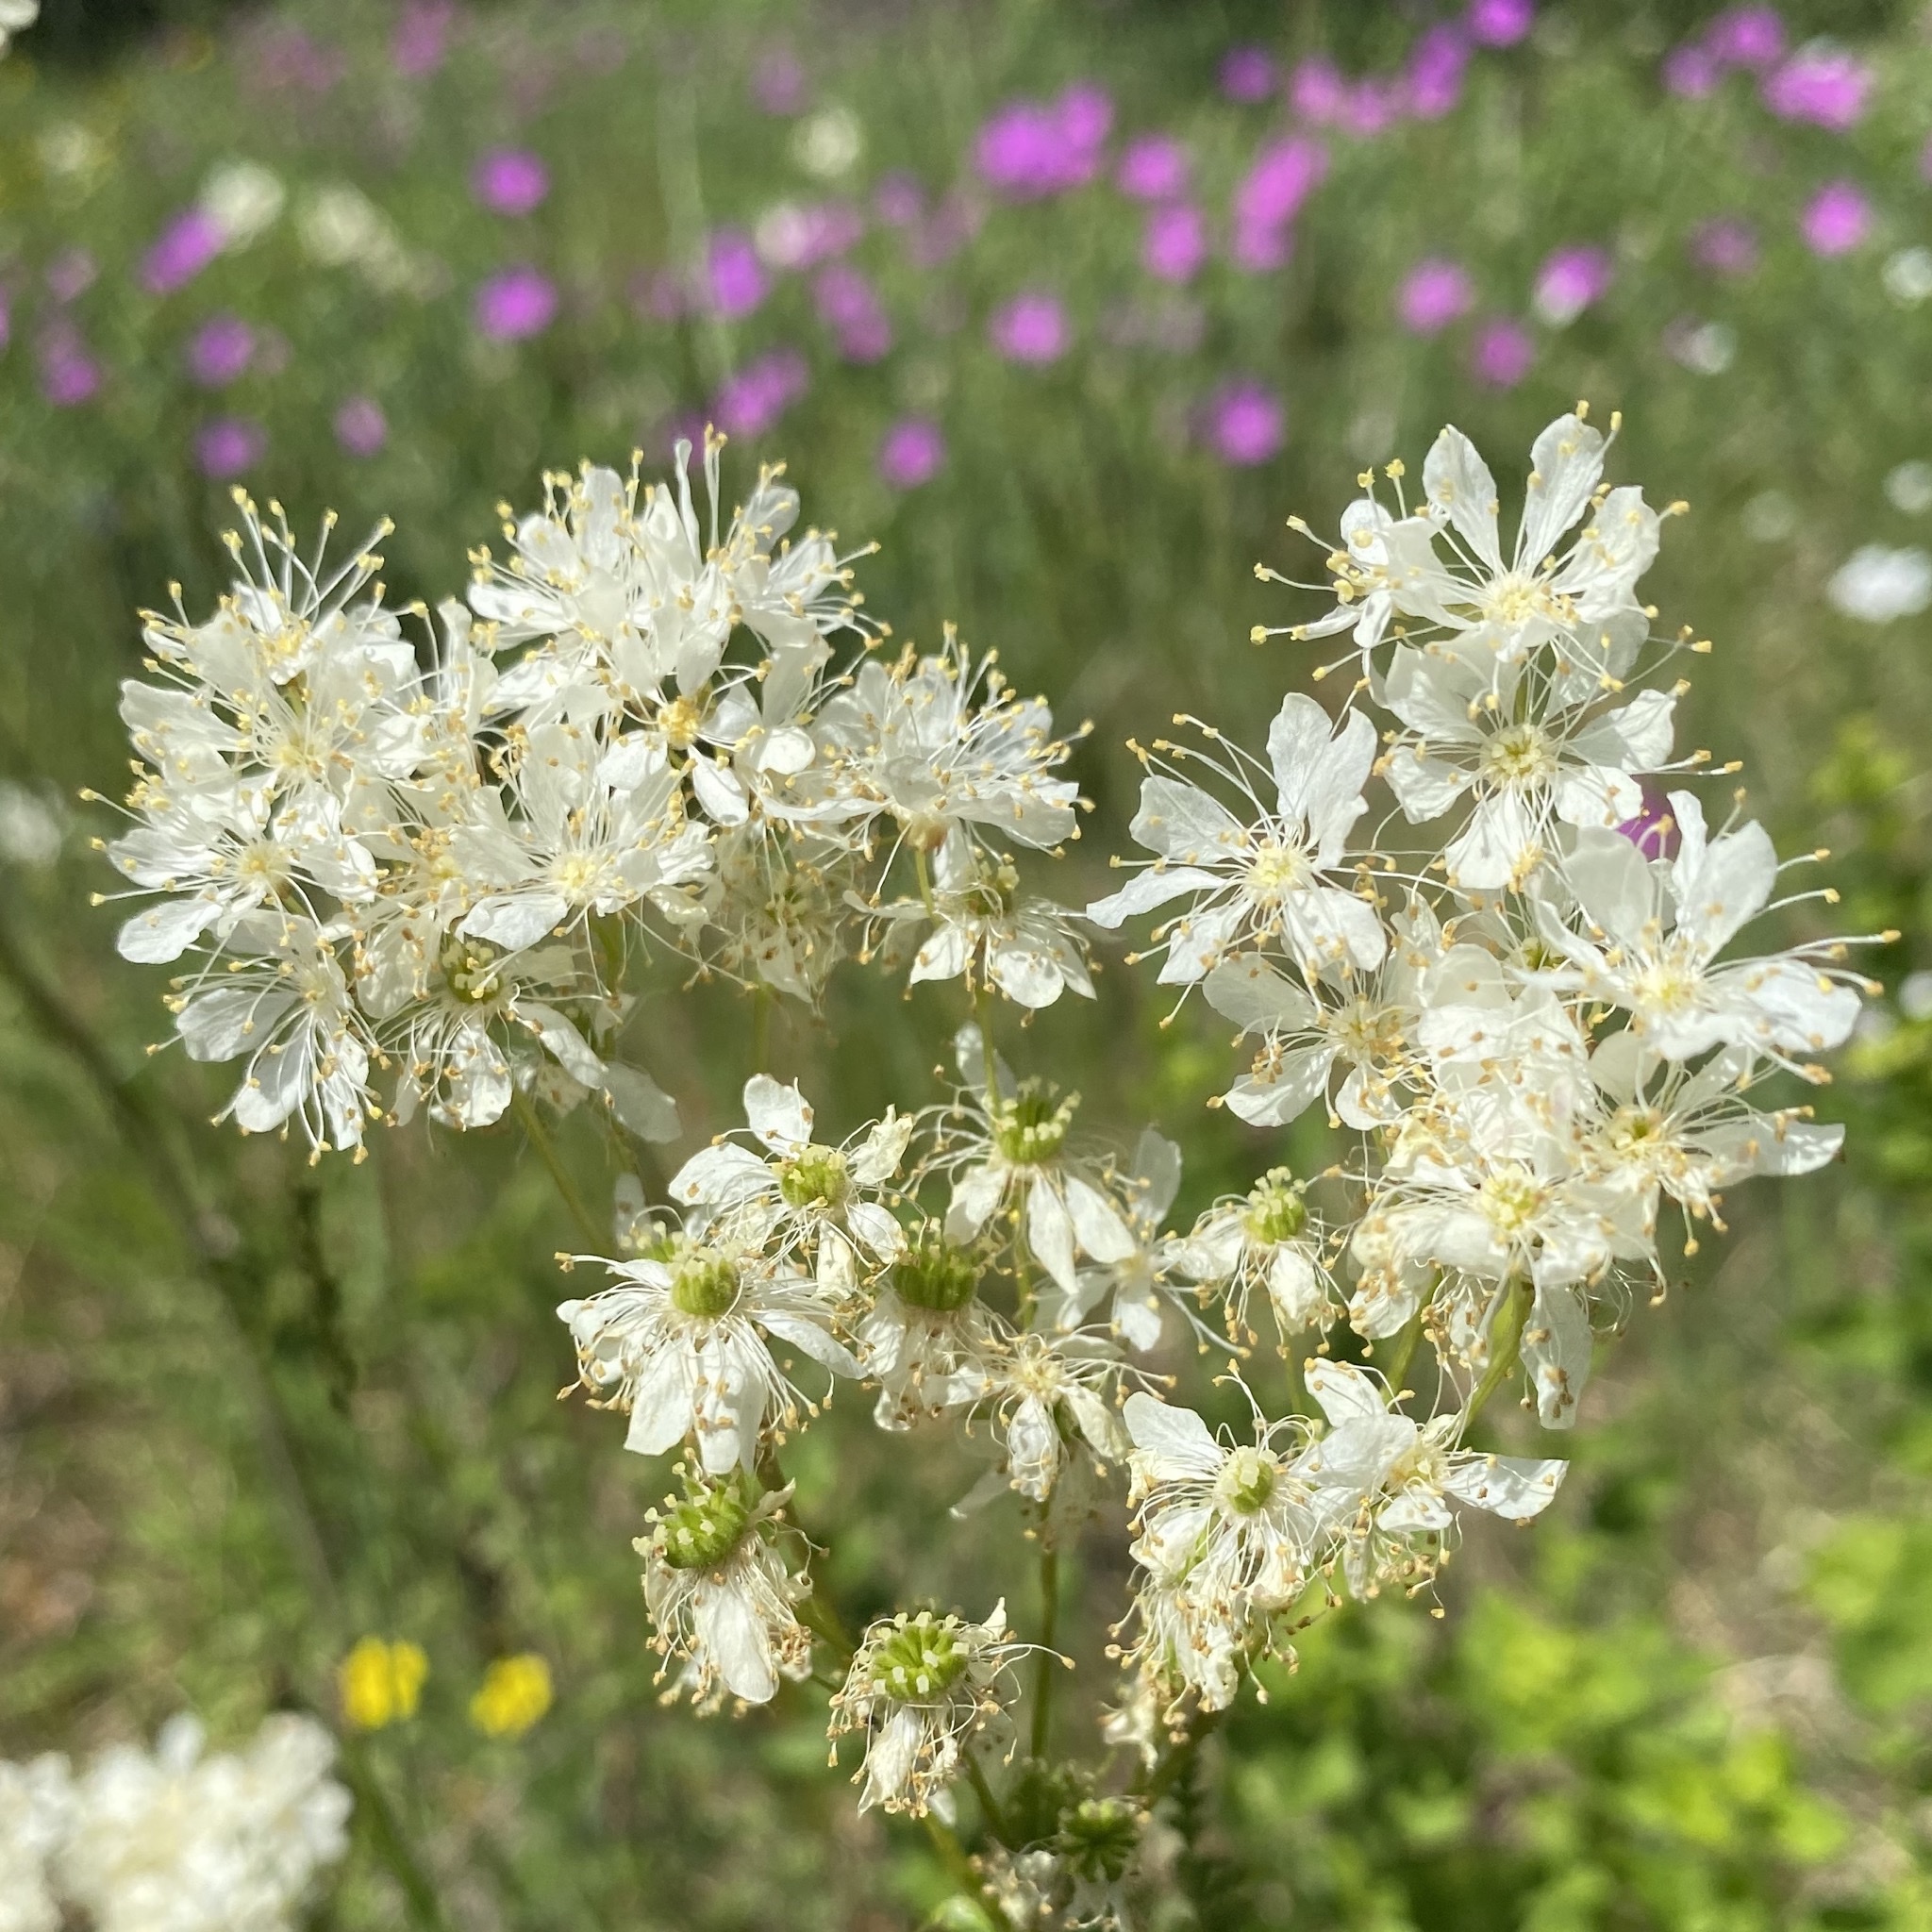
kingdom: Plantae
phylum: Tracheophyta
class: Magnoliopsida
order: Rosales
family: Rosaceae
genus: Filipendula
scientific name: Filipendula vulgaris
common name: Dropwort
